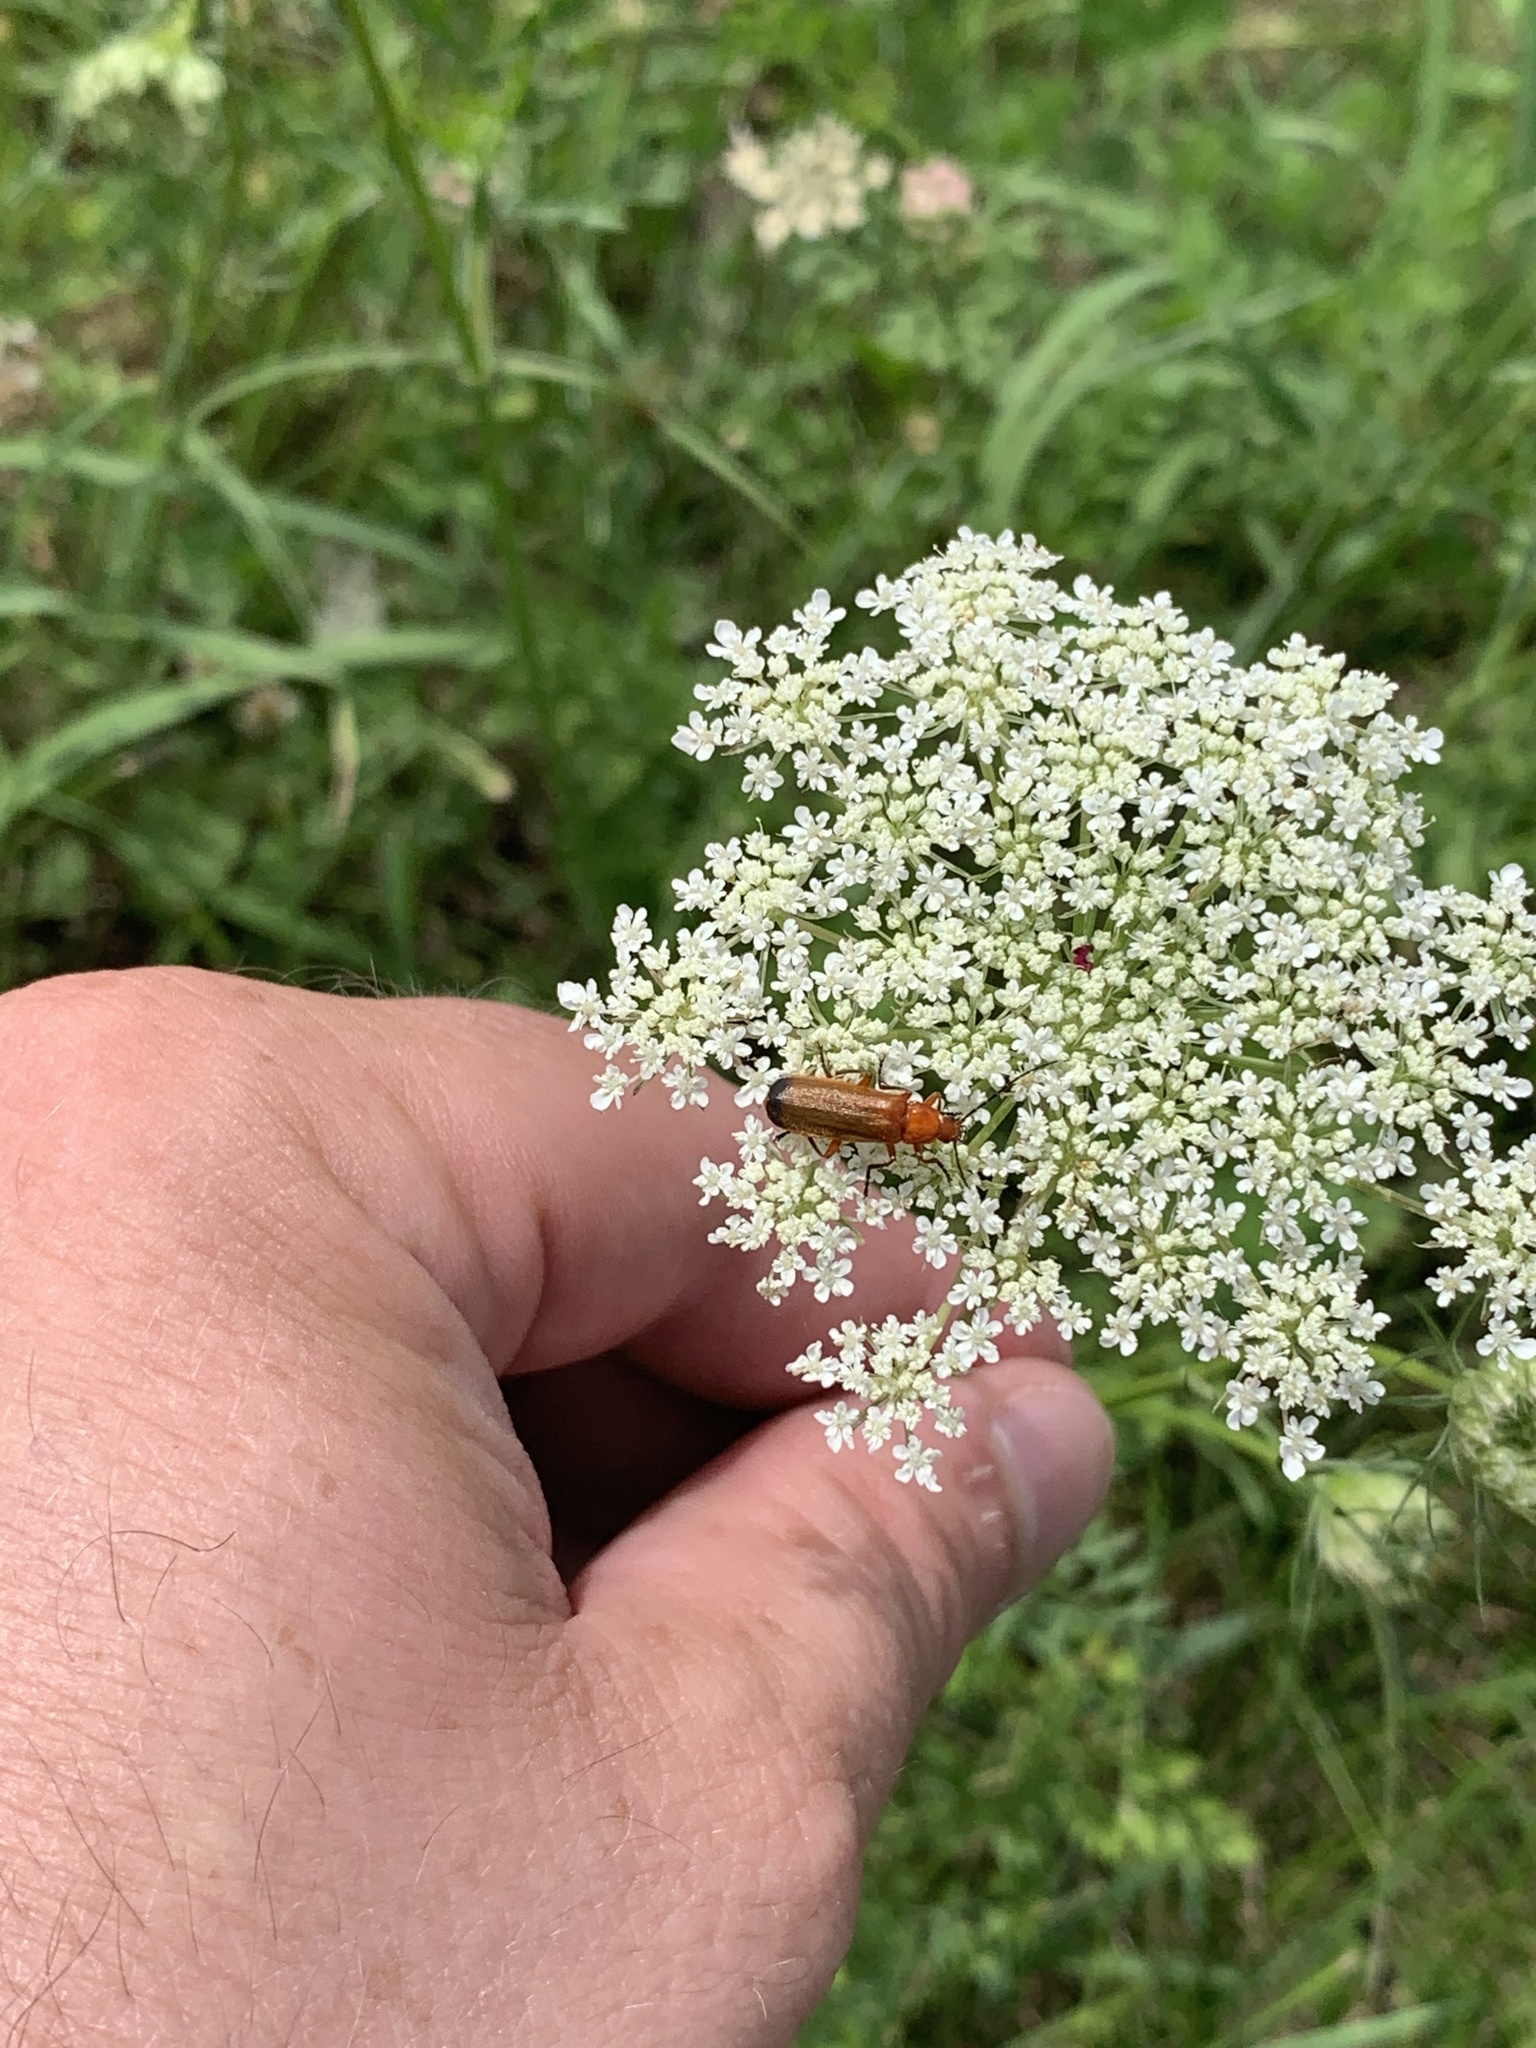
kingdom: Animalia
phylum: Arthropoda
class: Insecta
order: Coleoptera
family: Cantharidae
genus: Rhagonycha
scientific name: Rhagonycha fulva
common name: Common red soldier beetle
